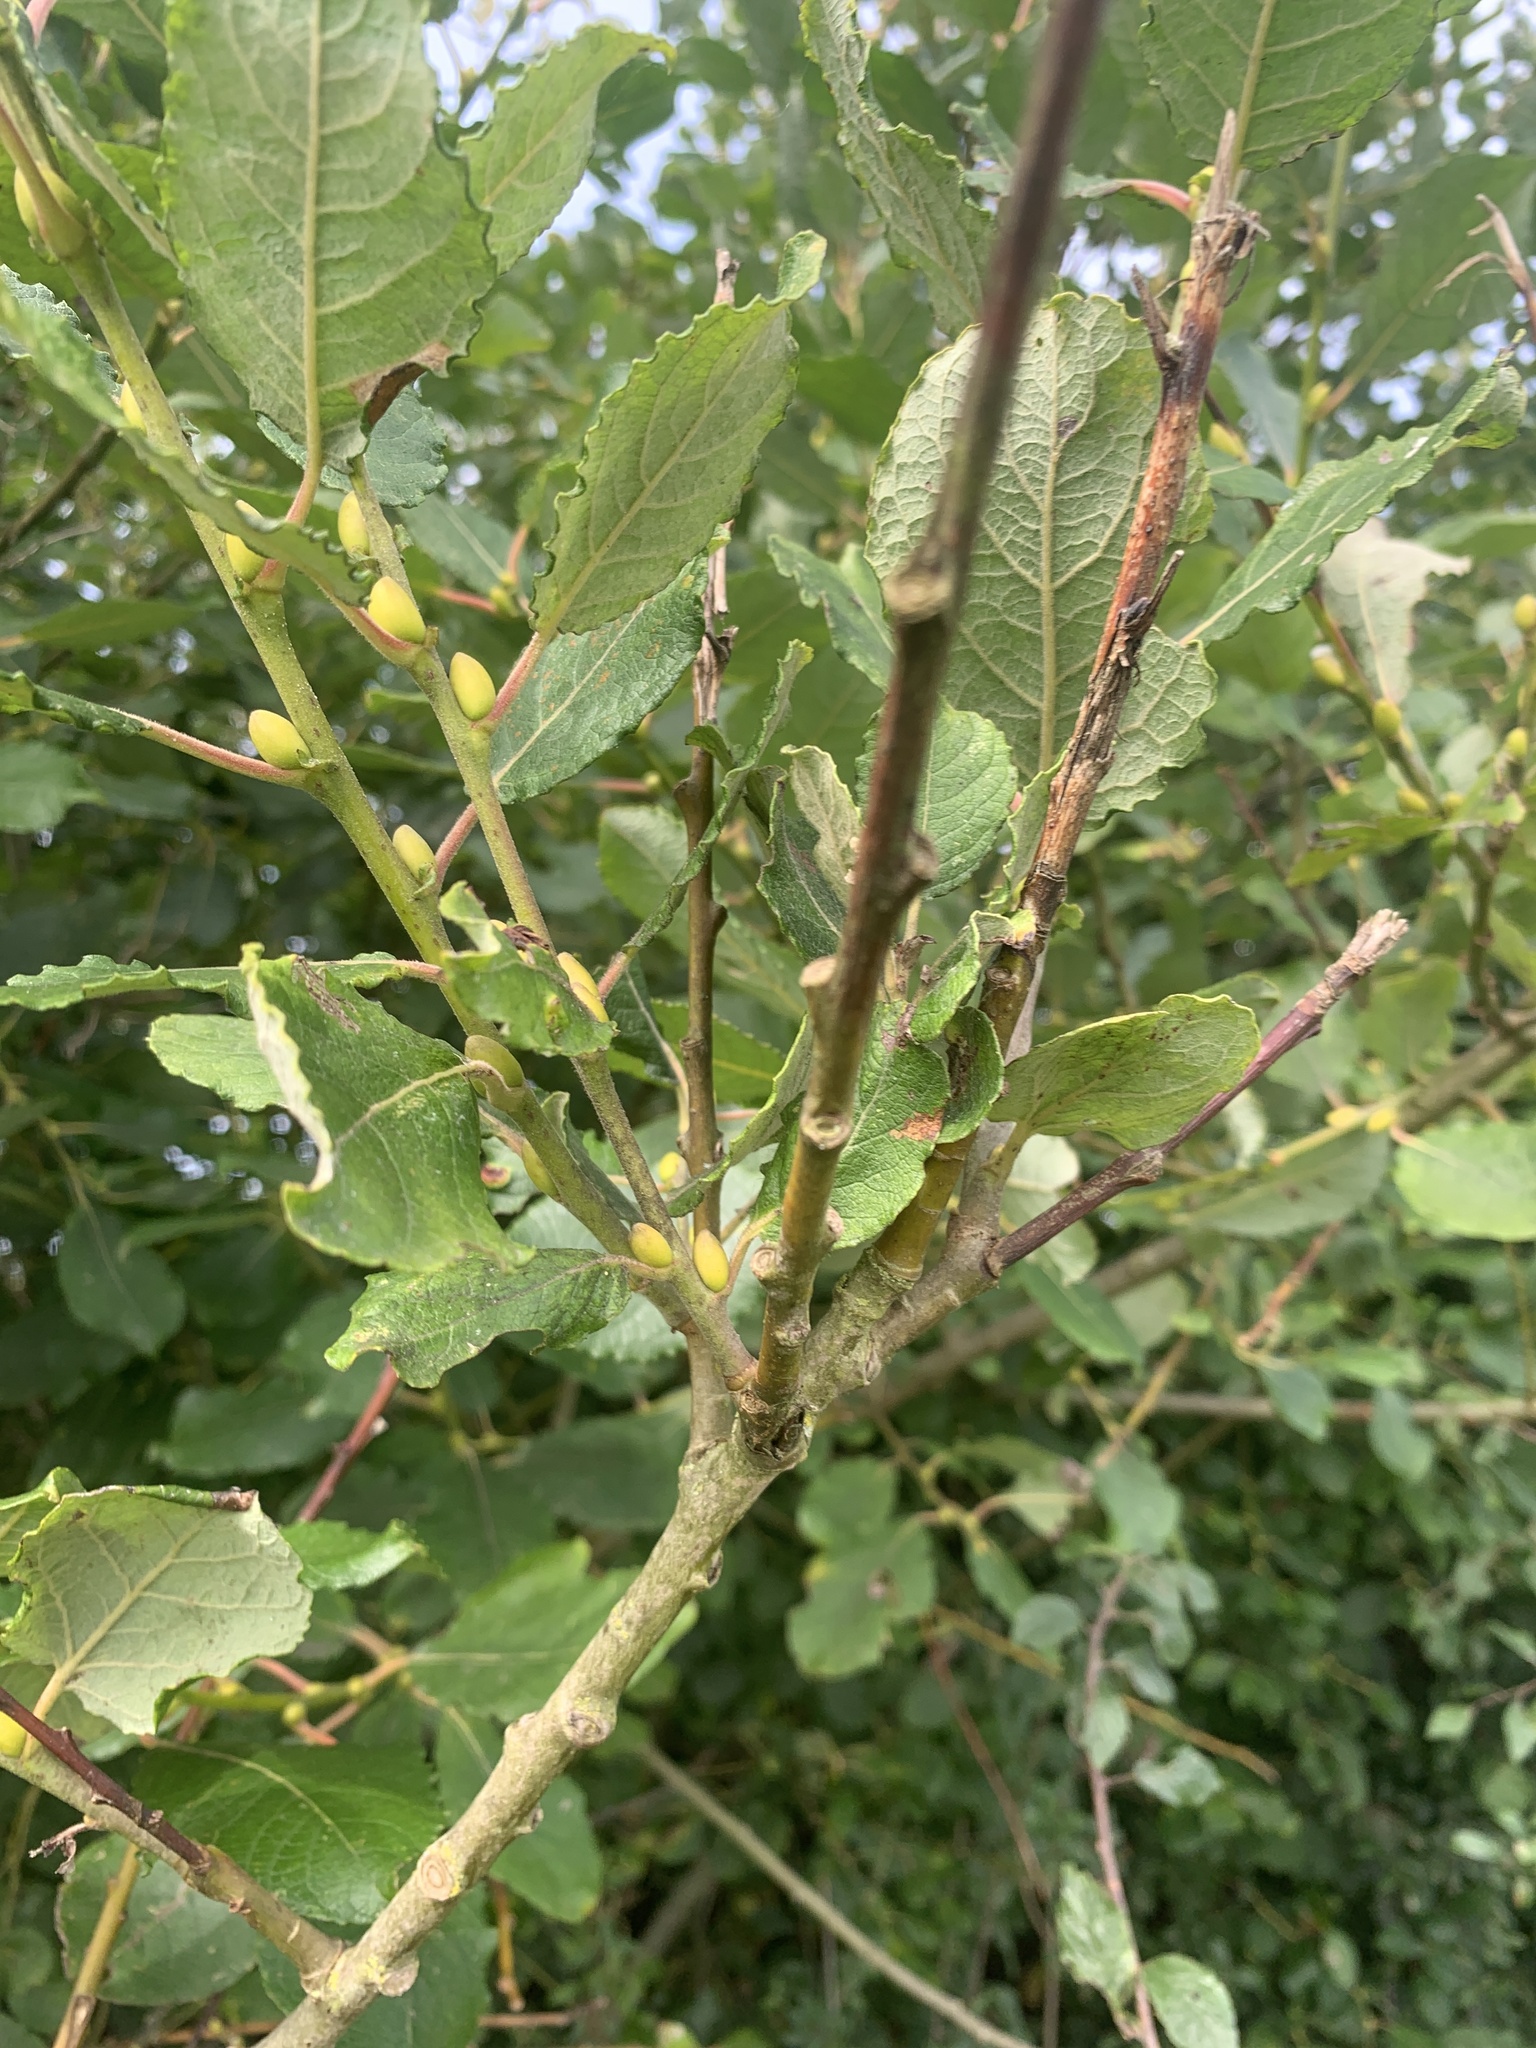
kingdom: Plantae
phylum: Tracheophyta
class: Magnoliopsida
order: Malpighiales
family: Salicaceae
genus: Salix
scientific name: Salix caprea
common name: Goat willow
